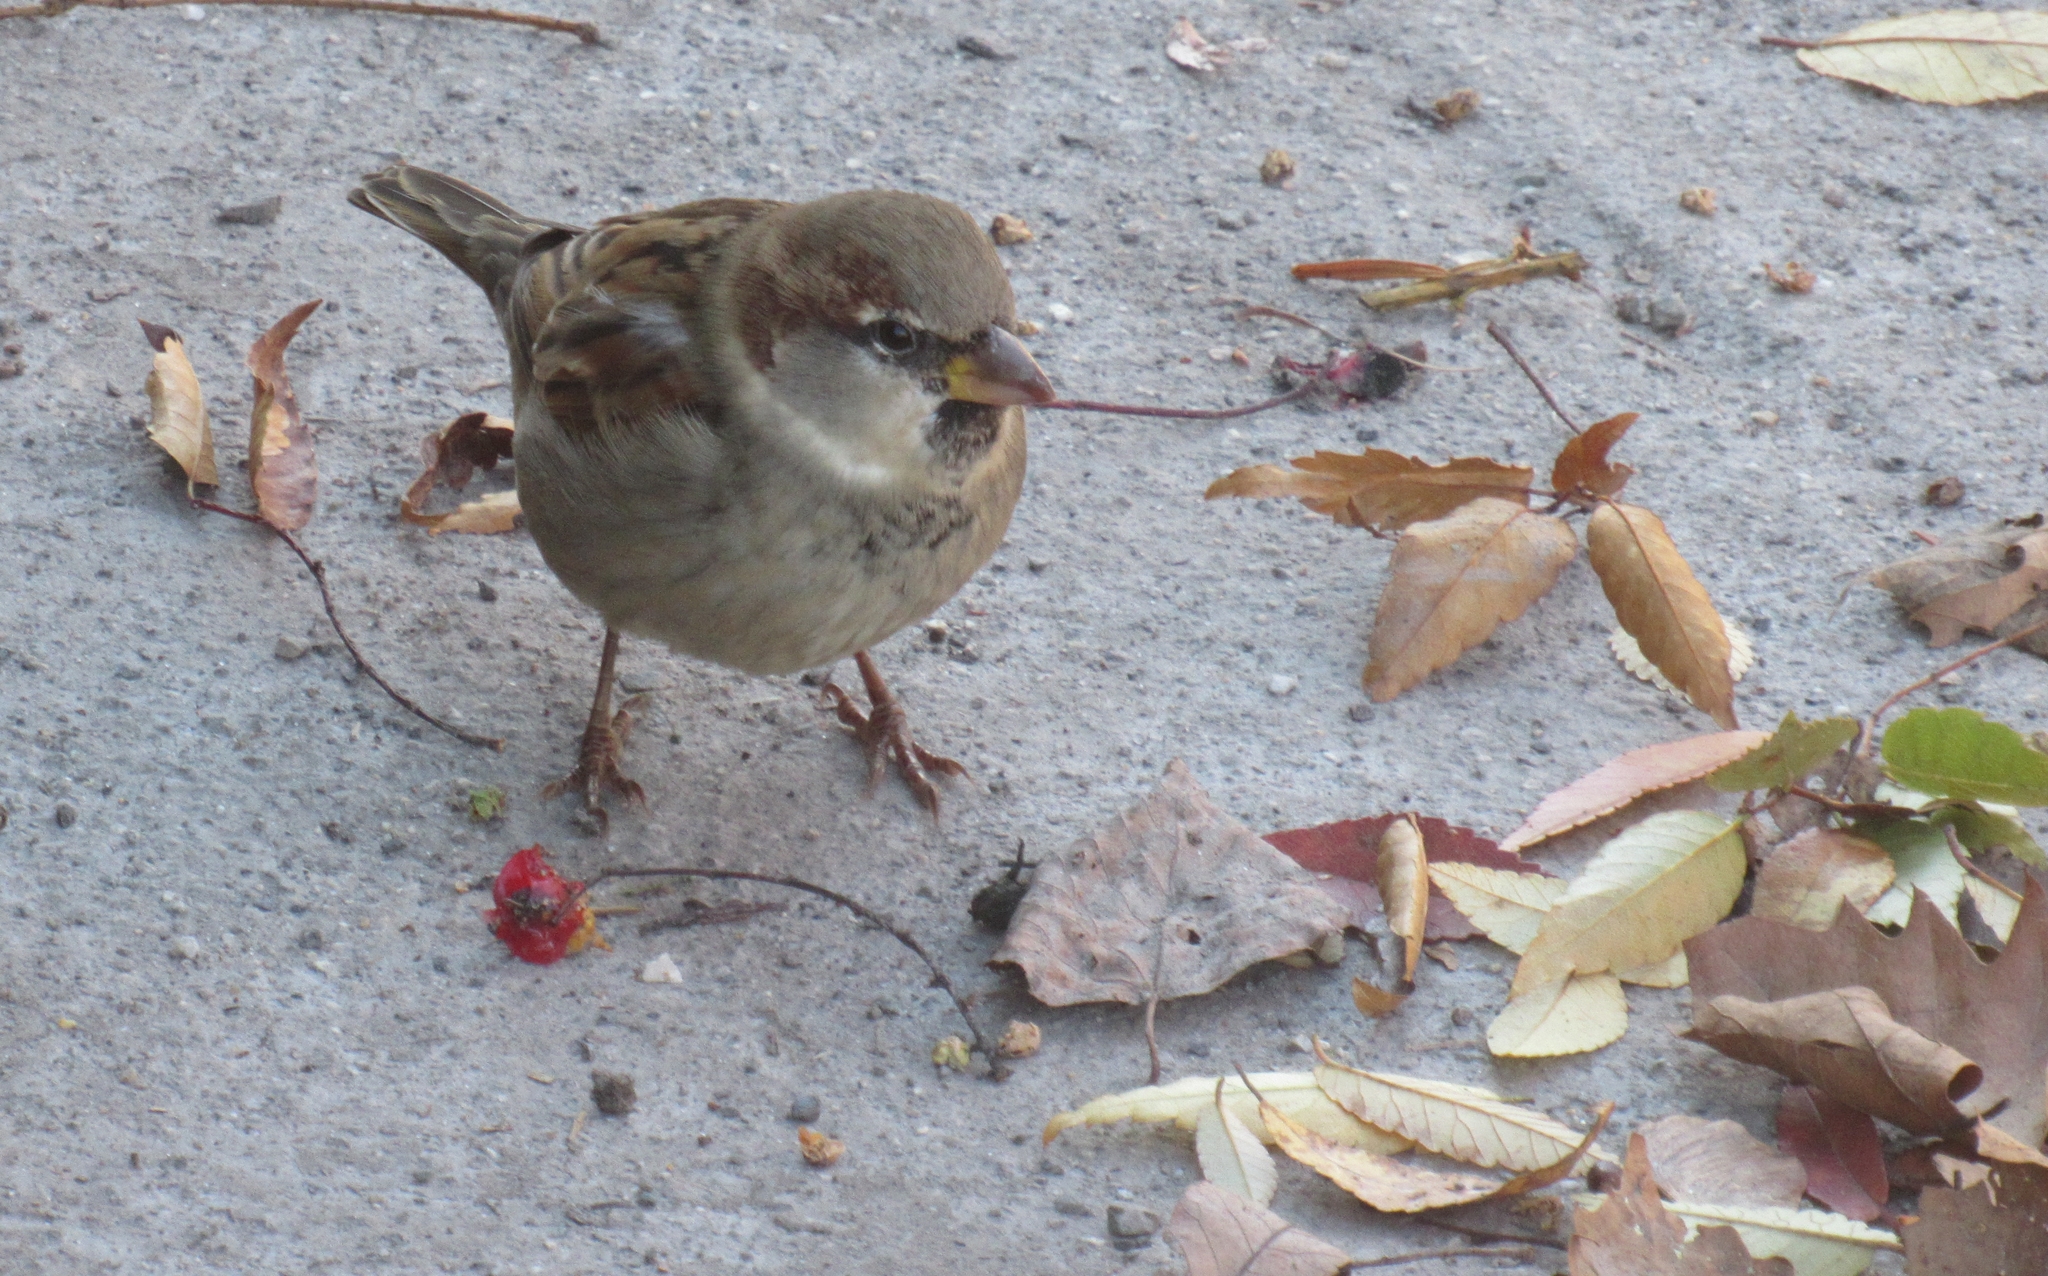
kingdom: Animalia
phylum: Chordata
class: Aves
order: Passeriformes
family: Passeridae
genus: Passer
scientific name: Passer domesticus
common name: House sparrow
